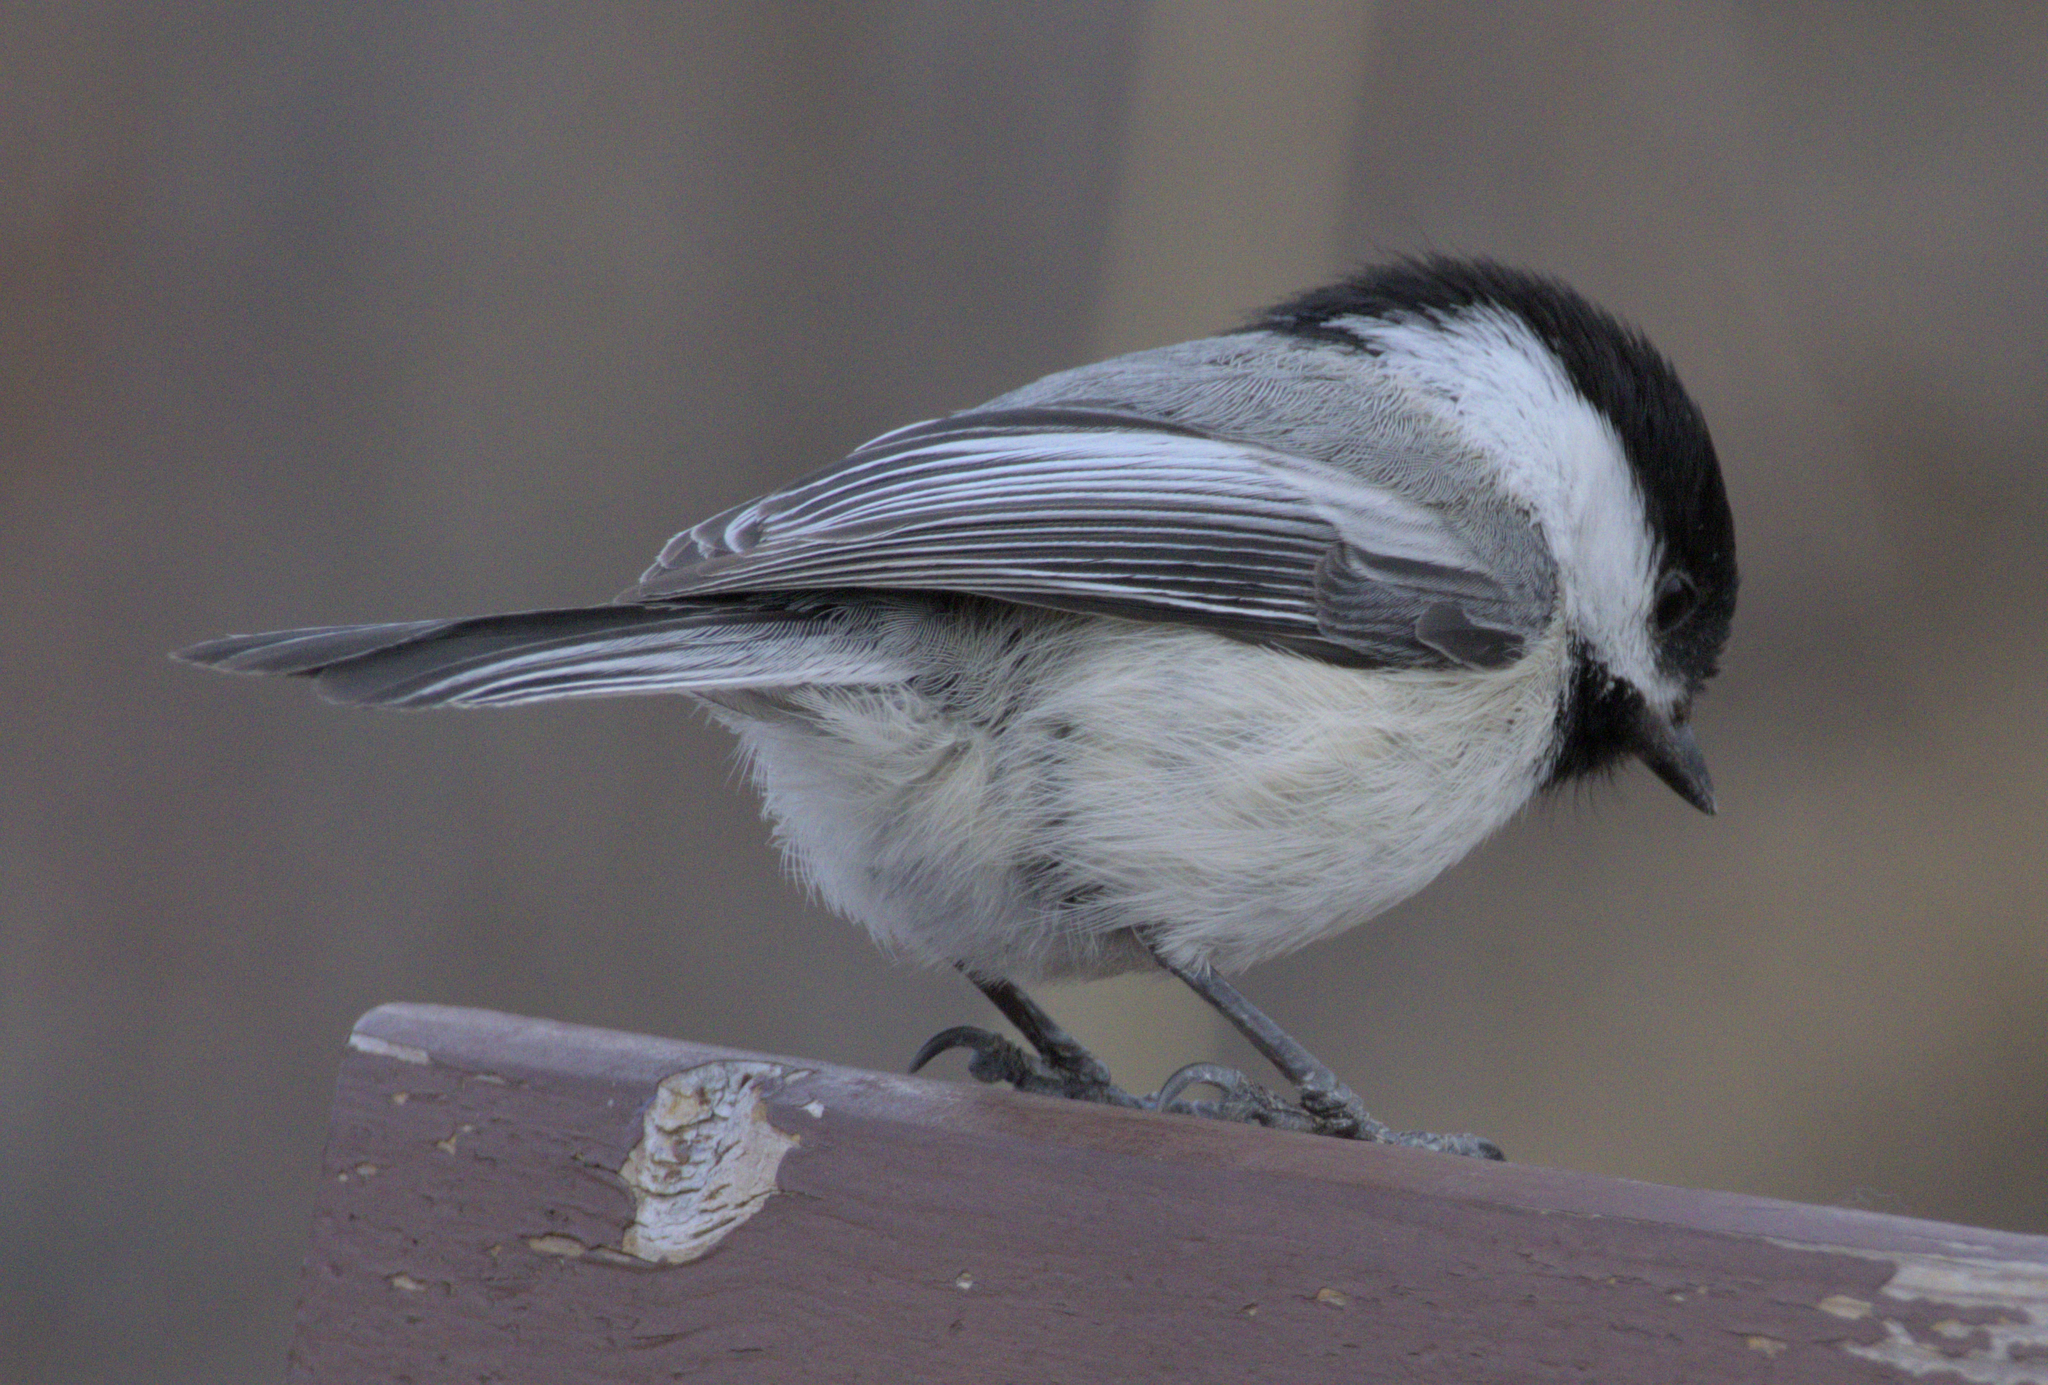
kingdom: Animalia
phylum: Chordata
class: Aves
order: Passeriformes
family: Paridae
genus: Poecile
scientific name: Poecile atricapillus
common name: Black-capped chickadee
